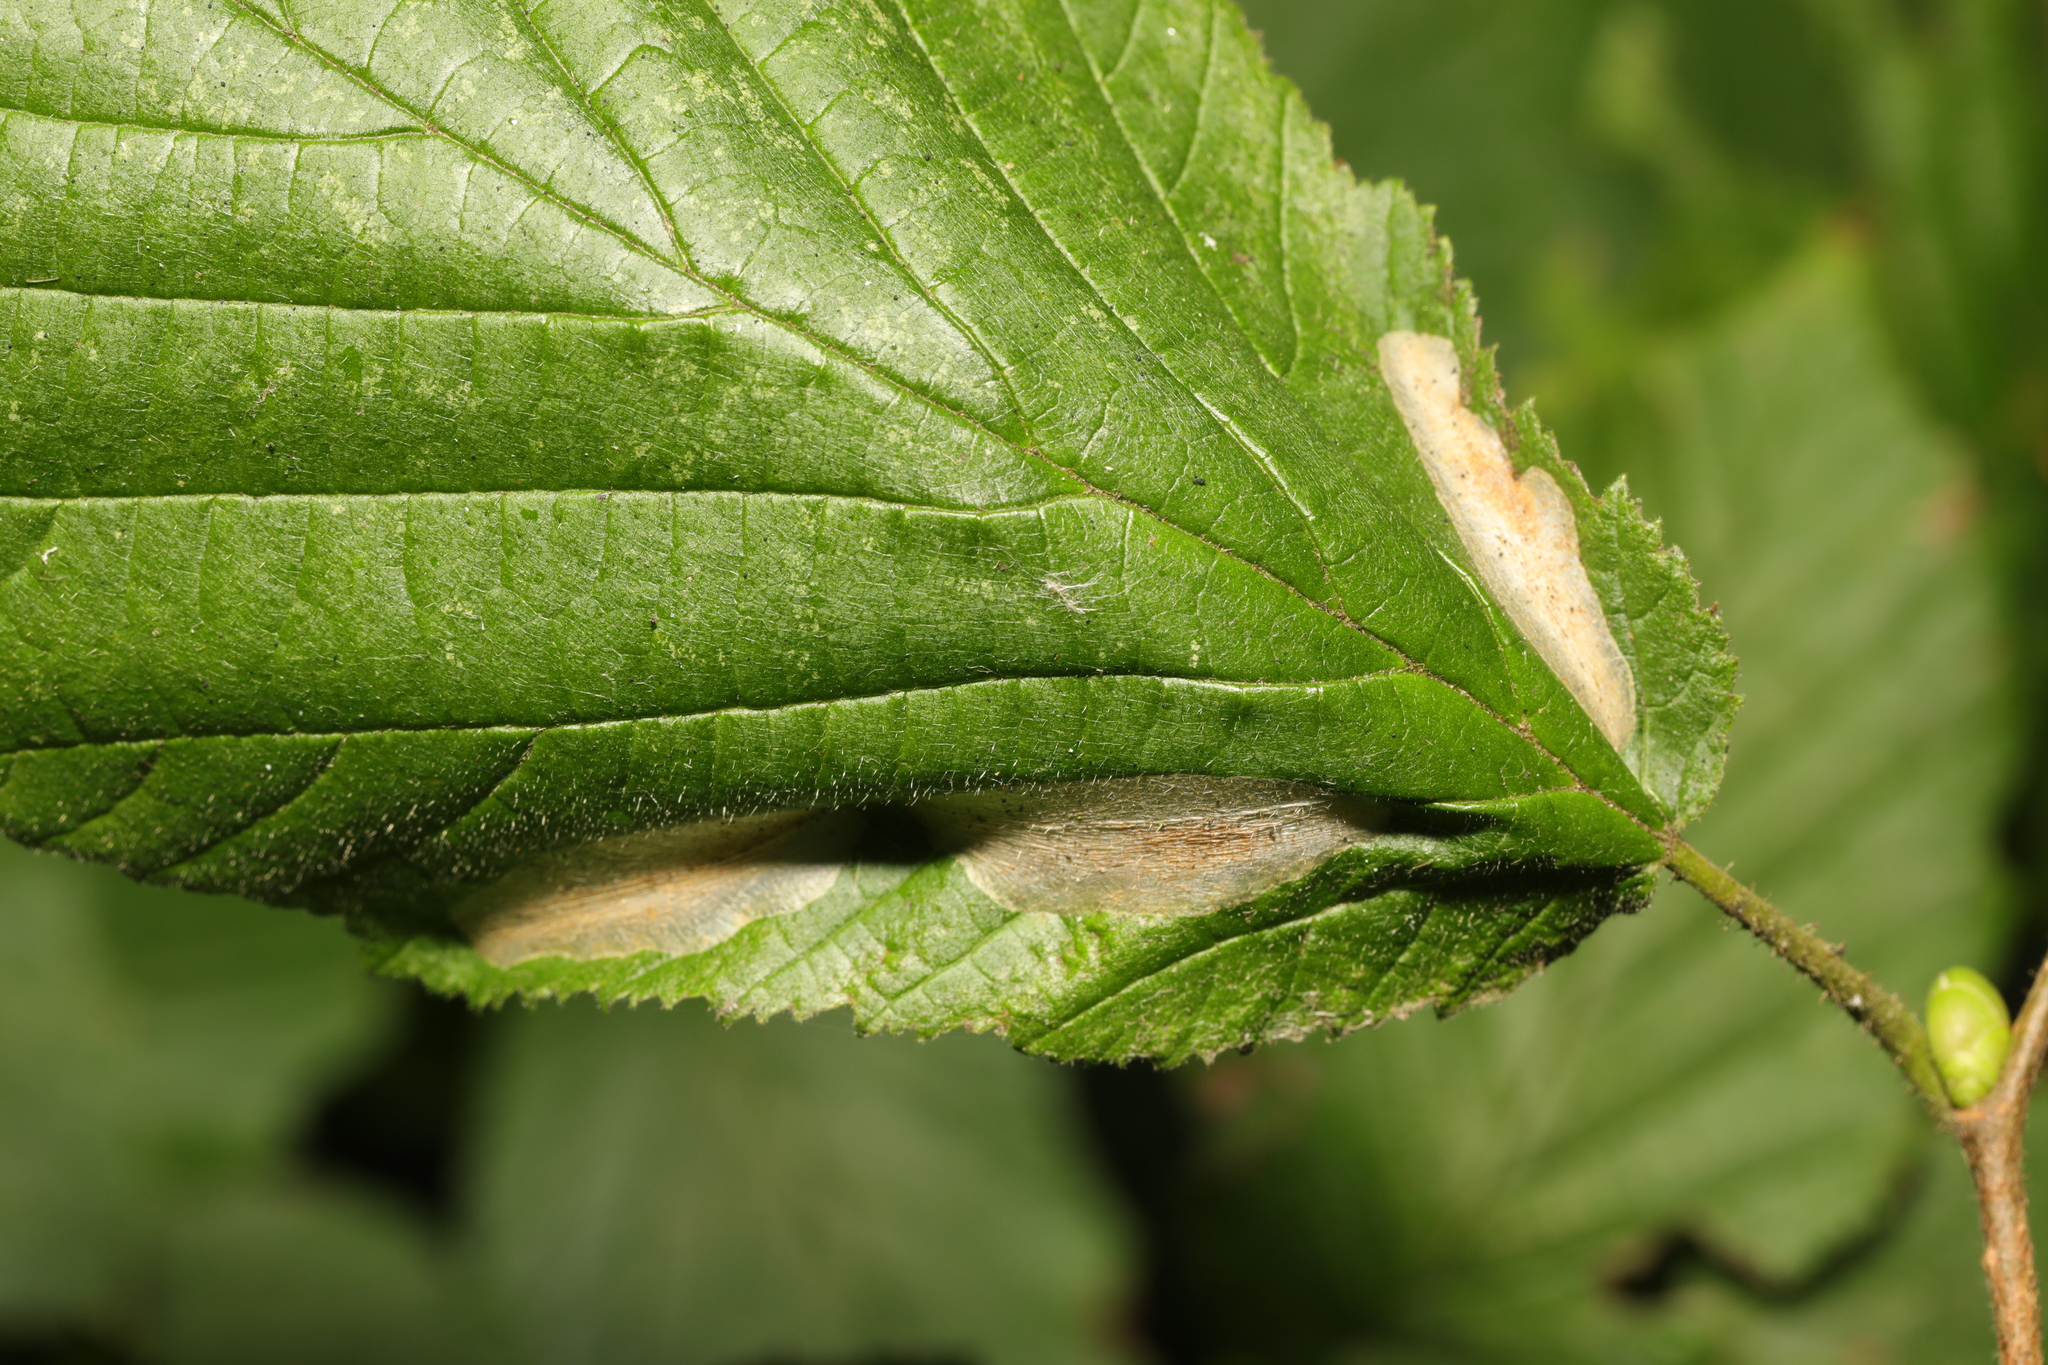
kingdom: Animalia
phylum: Arthropoda
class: Insecta
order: Lepidoptera
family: Gracillariidae
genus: Phyllonorycter
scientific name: Phyllonorycter coryli
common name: Nut-leaf blister moth
